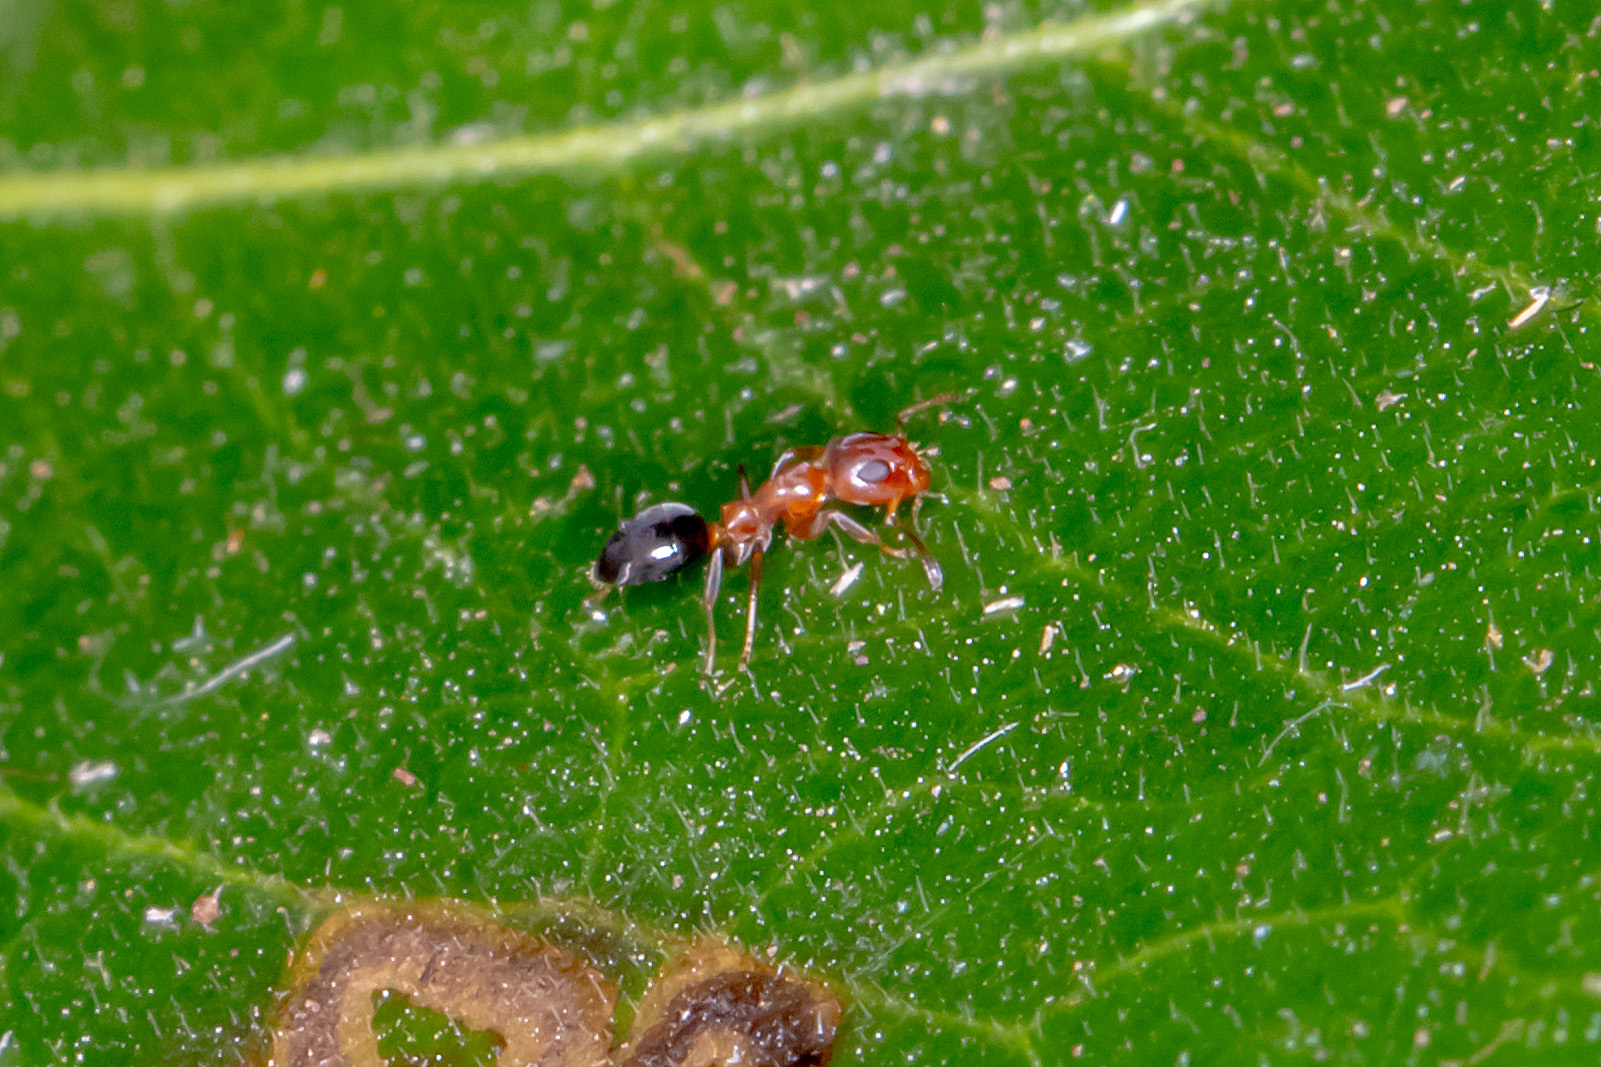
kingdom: Animalia
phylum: Arthropoda
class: Insecta
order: Hymenoptera
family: Formicidae
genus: Turneria
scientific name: Turneria bidentata
